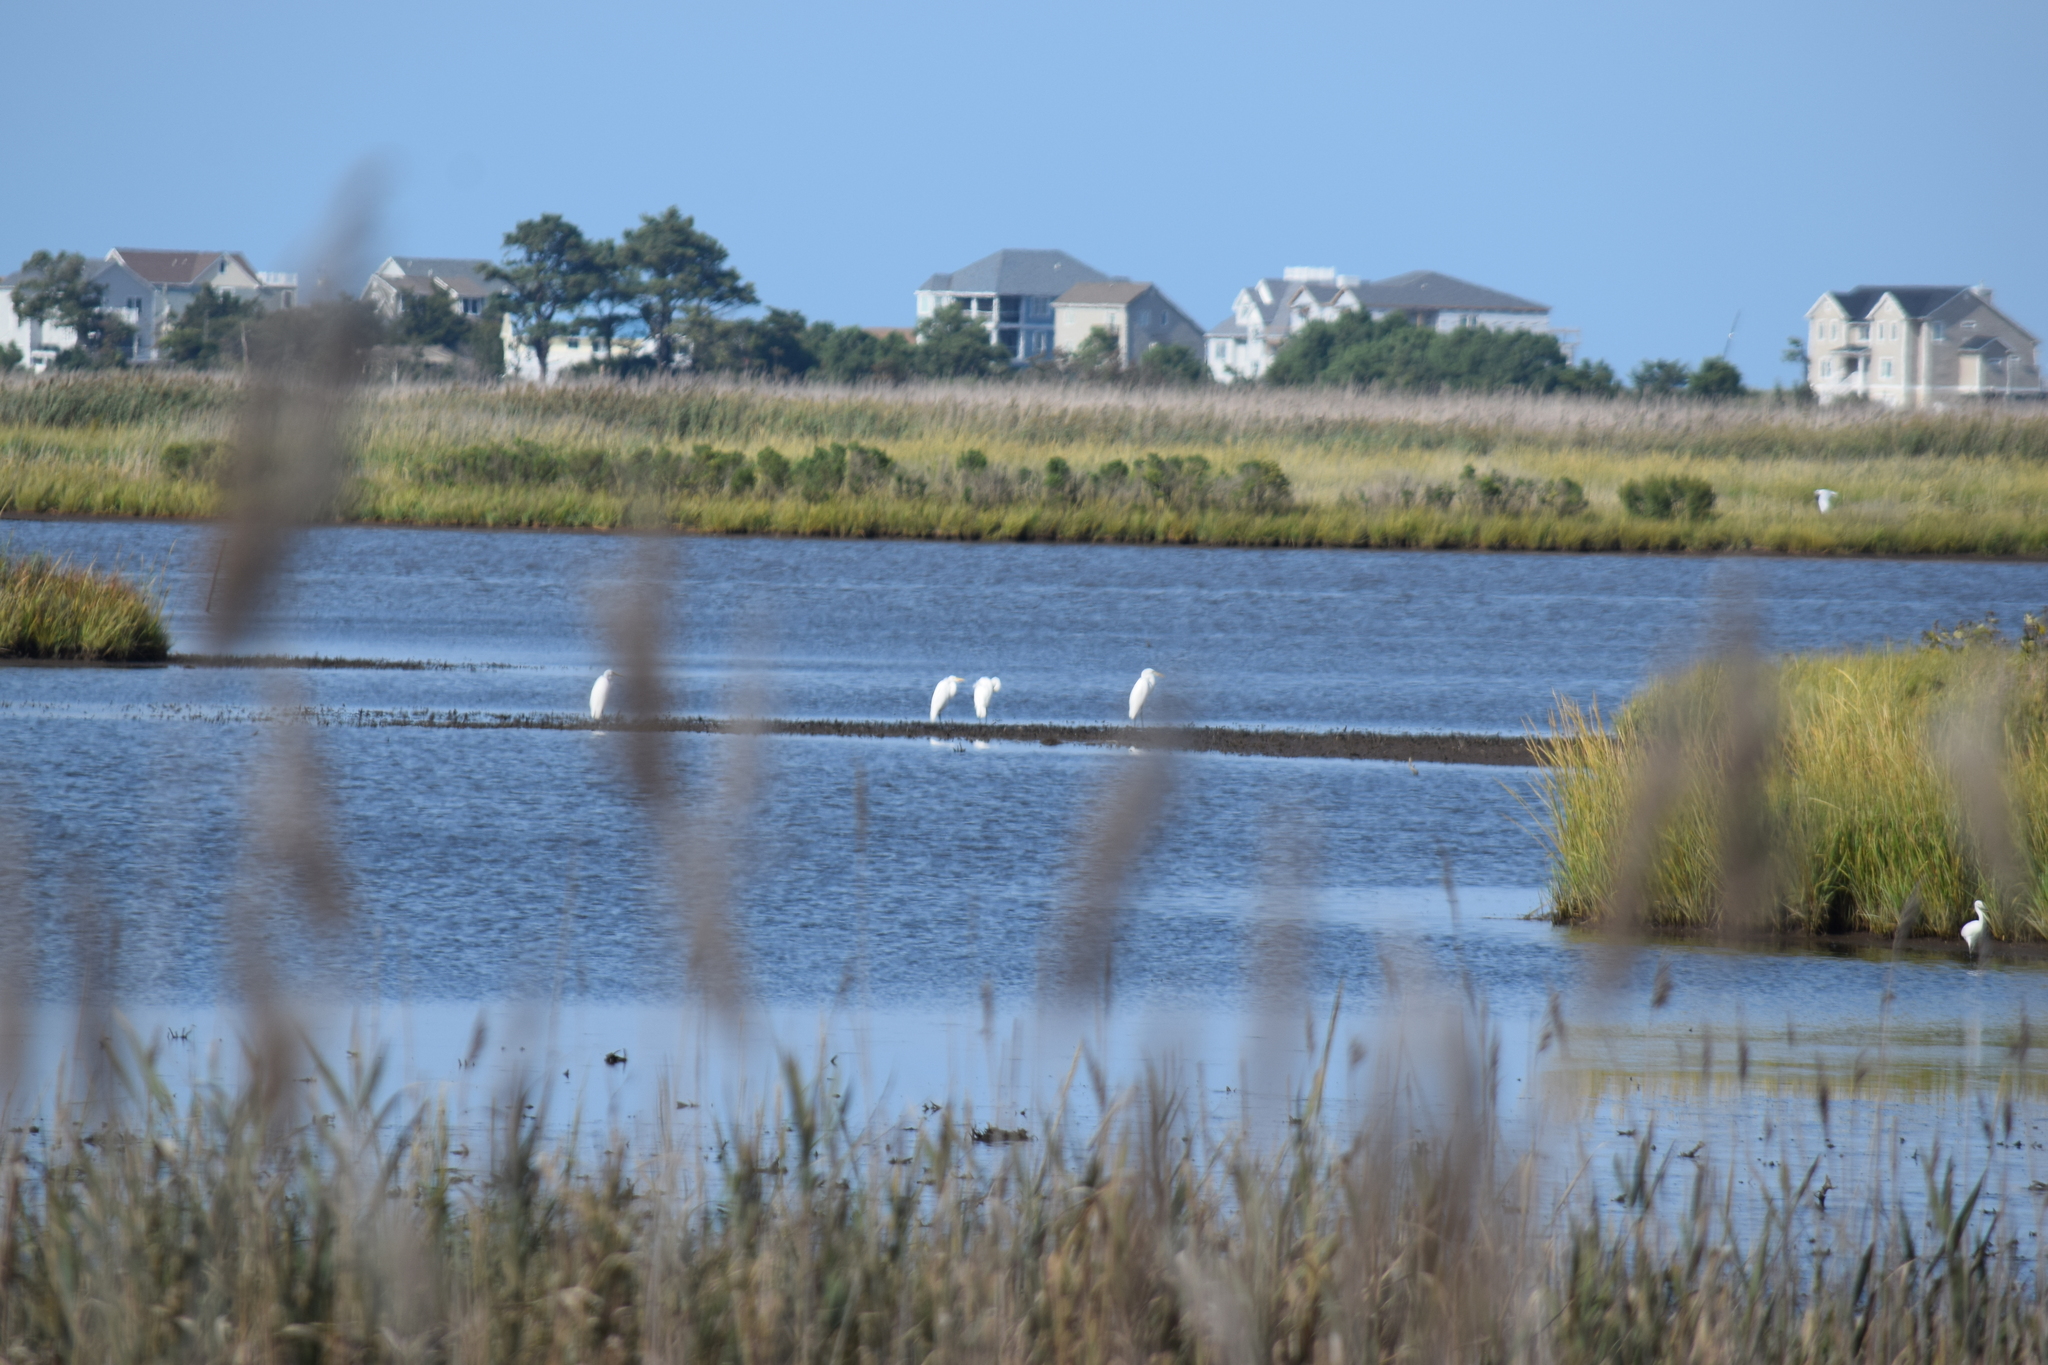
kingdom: Animalia
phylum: Chordata
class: Aves
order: Pelecaniformes
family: Ardeidae
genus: Ardea
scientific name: Ardea alba
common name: Great egret
